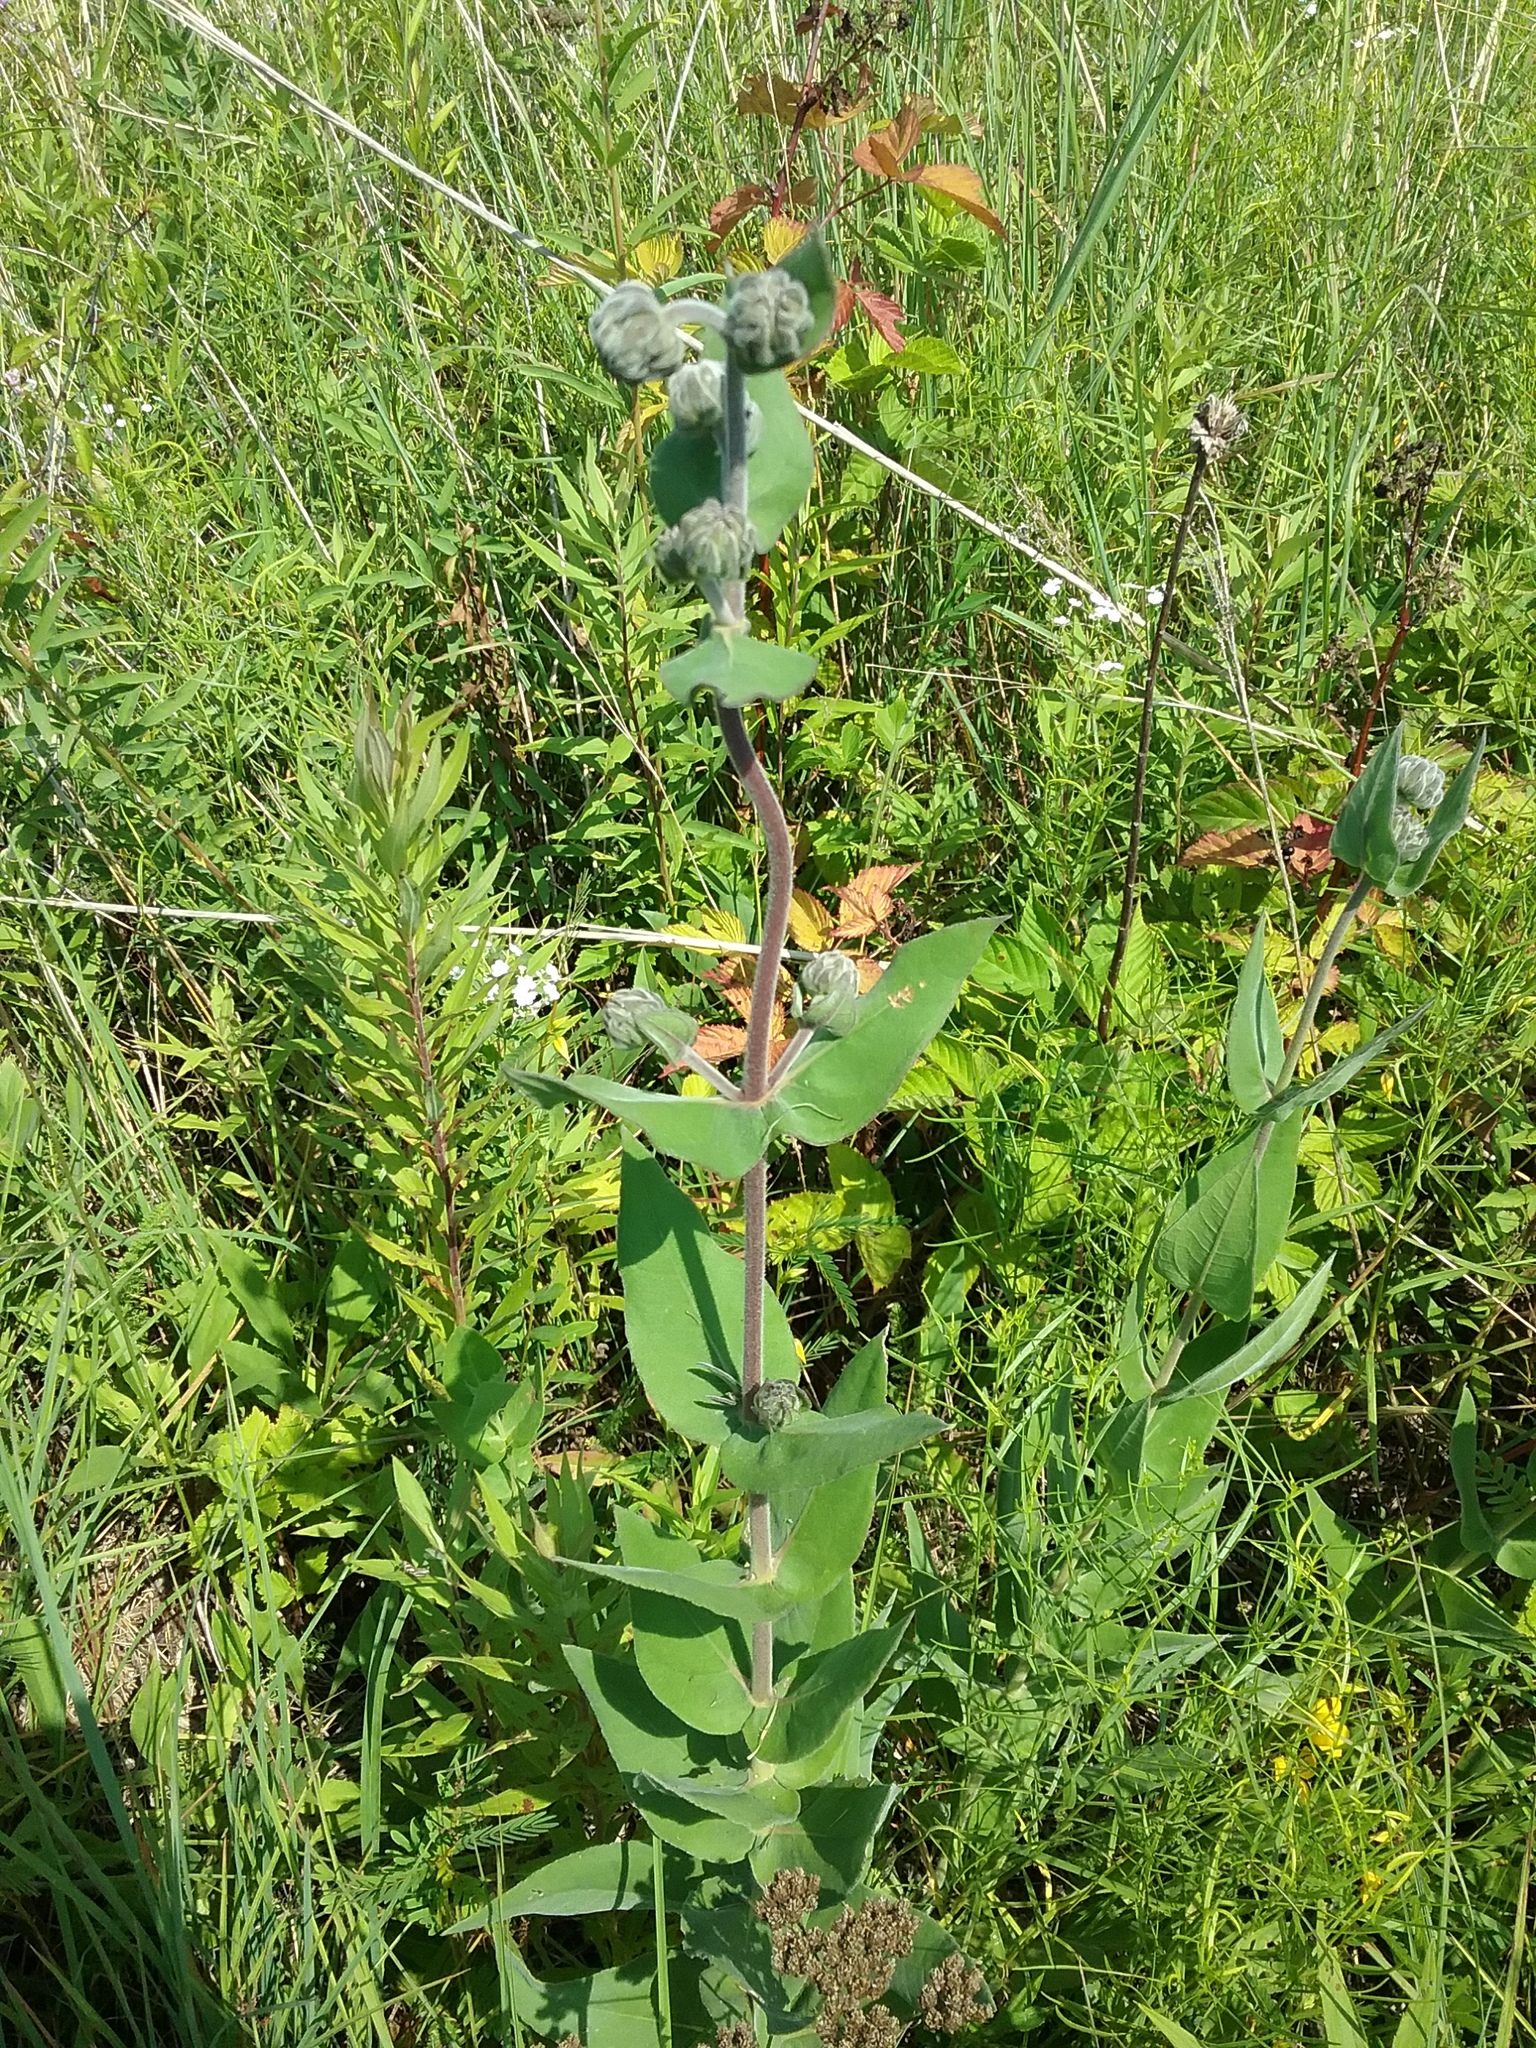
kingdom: Plantae
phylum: Tracheophyta
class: Magnoliopsida
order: Asterales
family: Asteraceae
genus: Helianthus
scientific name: Helianthus mollis
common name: Ashy sunflower
